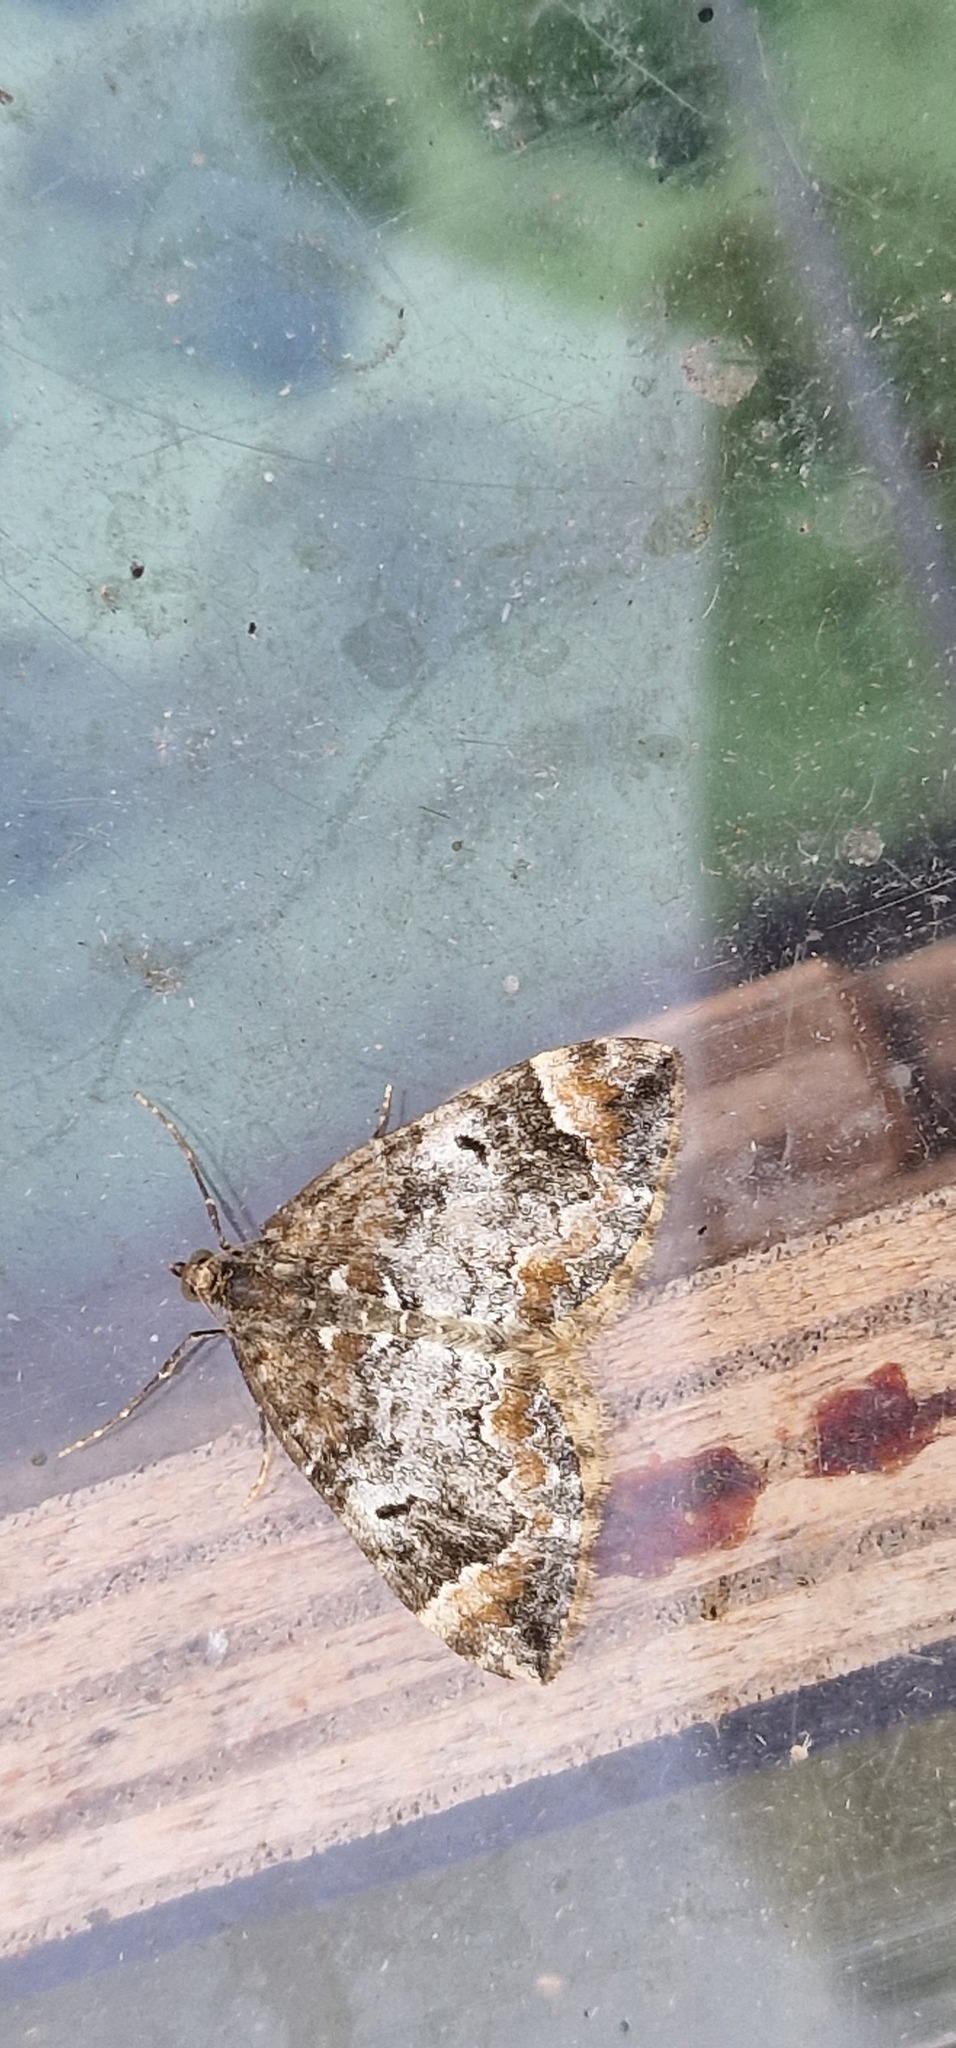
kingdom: Animalia
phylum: Arthropoda
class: Insecta
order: Lepidoptera
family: Geometridae
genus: Dysstroma
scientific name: Dysstroma truncata
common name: Common marbled carpet
